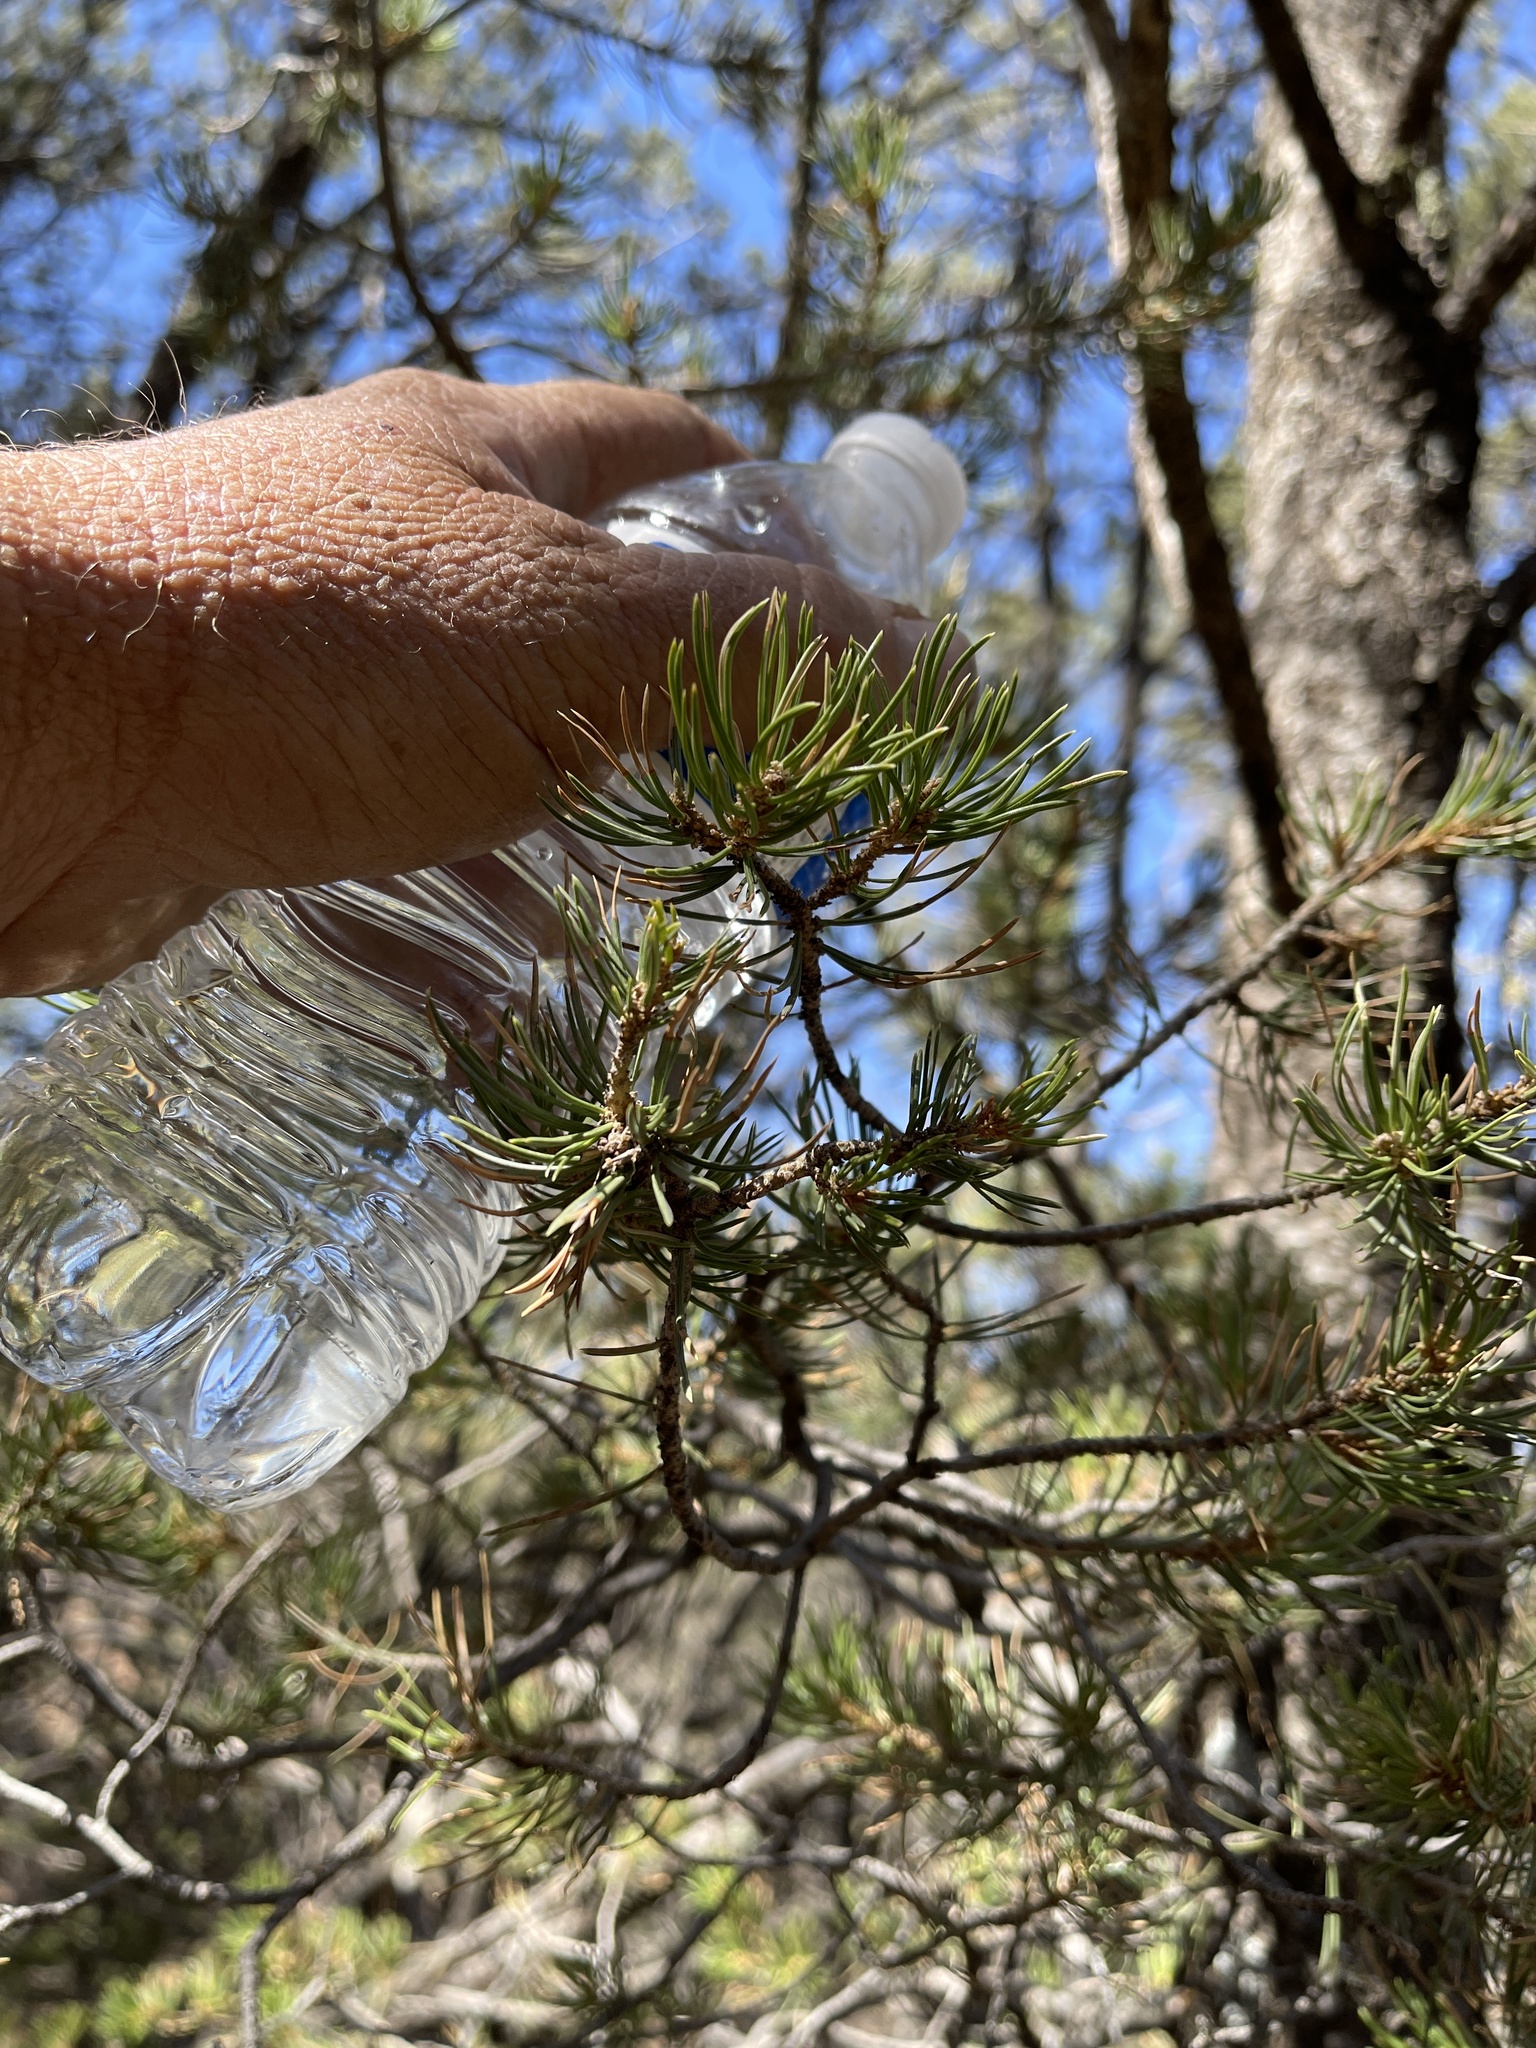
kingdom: Plantae
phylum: Tracheophyta
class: Pinopsida
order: Pinales
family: Pinaceae
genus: Pinus
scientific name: Pinus edulis
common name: Colorado pinyon
